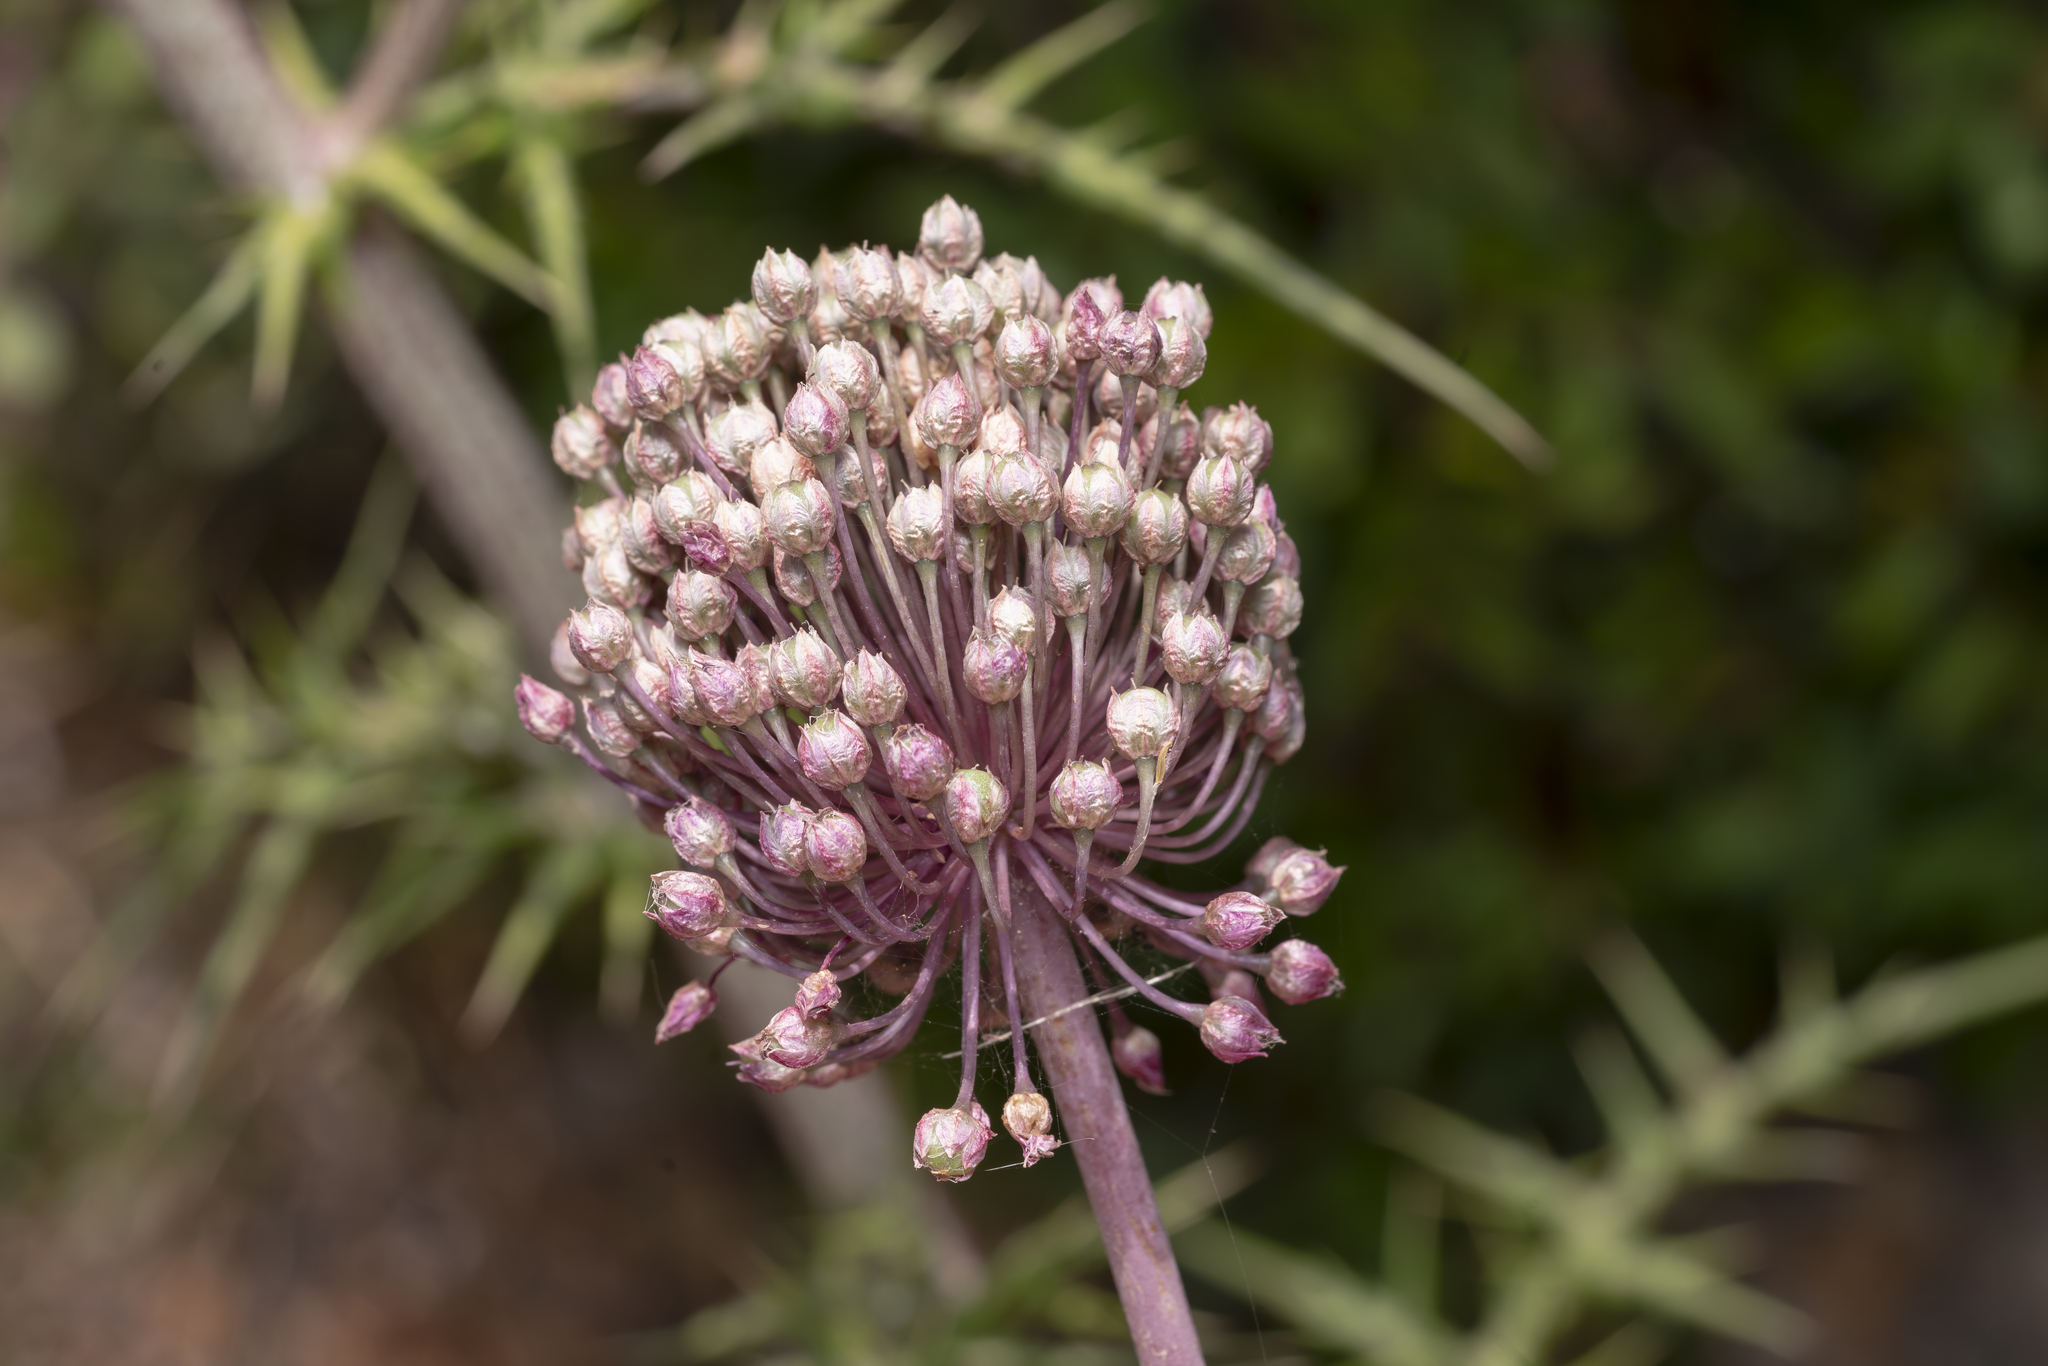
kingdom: Plantae
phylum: Tracheophyta
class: Liliopsida
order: Asparagales
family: Amaryllidaceae
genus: Allium
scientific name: Allium ampeloprasum
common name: Wild leek
